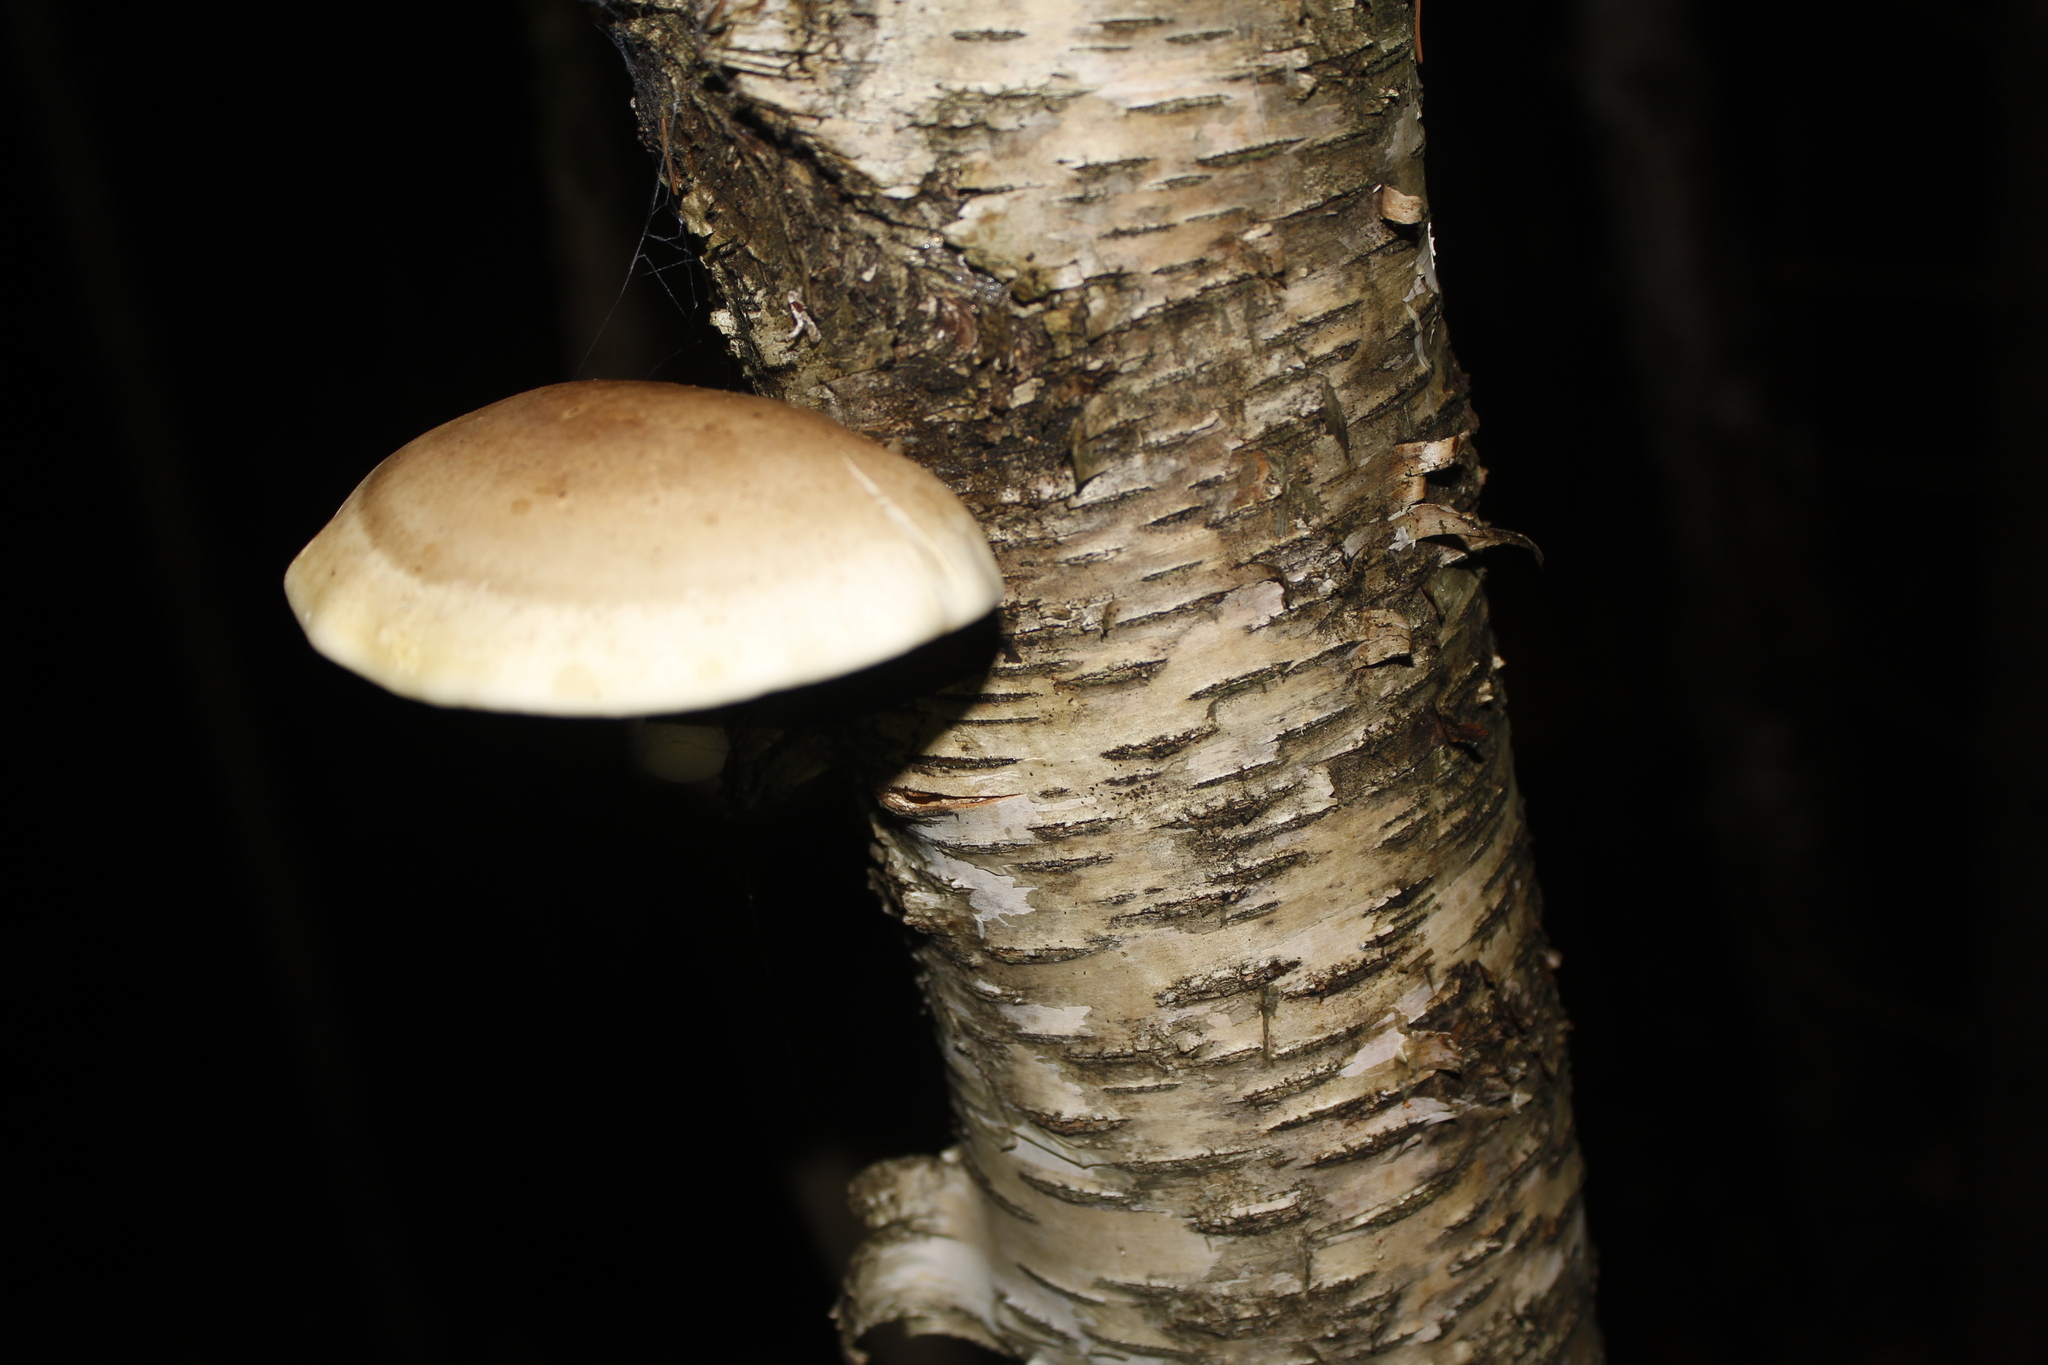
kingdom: Fungi
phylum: Basidiomycota
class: Agaricomycetes
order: Polyporales
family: Fomitopsidaceae
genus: Fomitopsis
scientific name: Fomitopsis betulina
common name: Birch polypore
